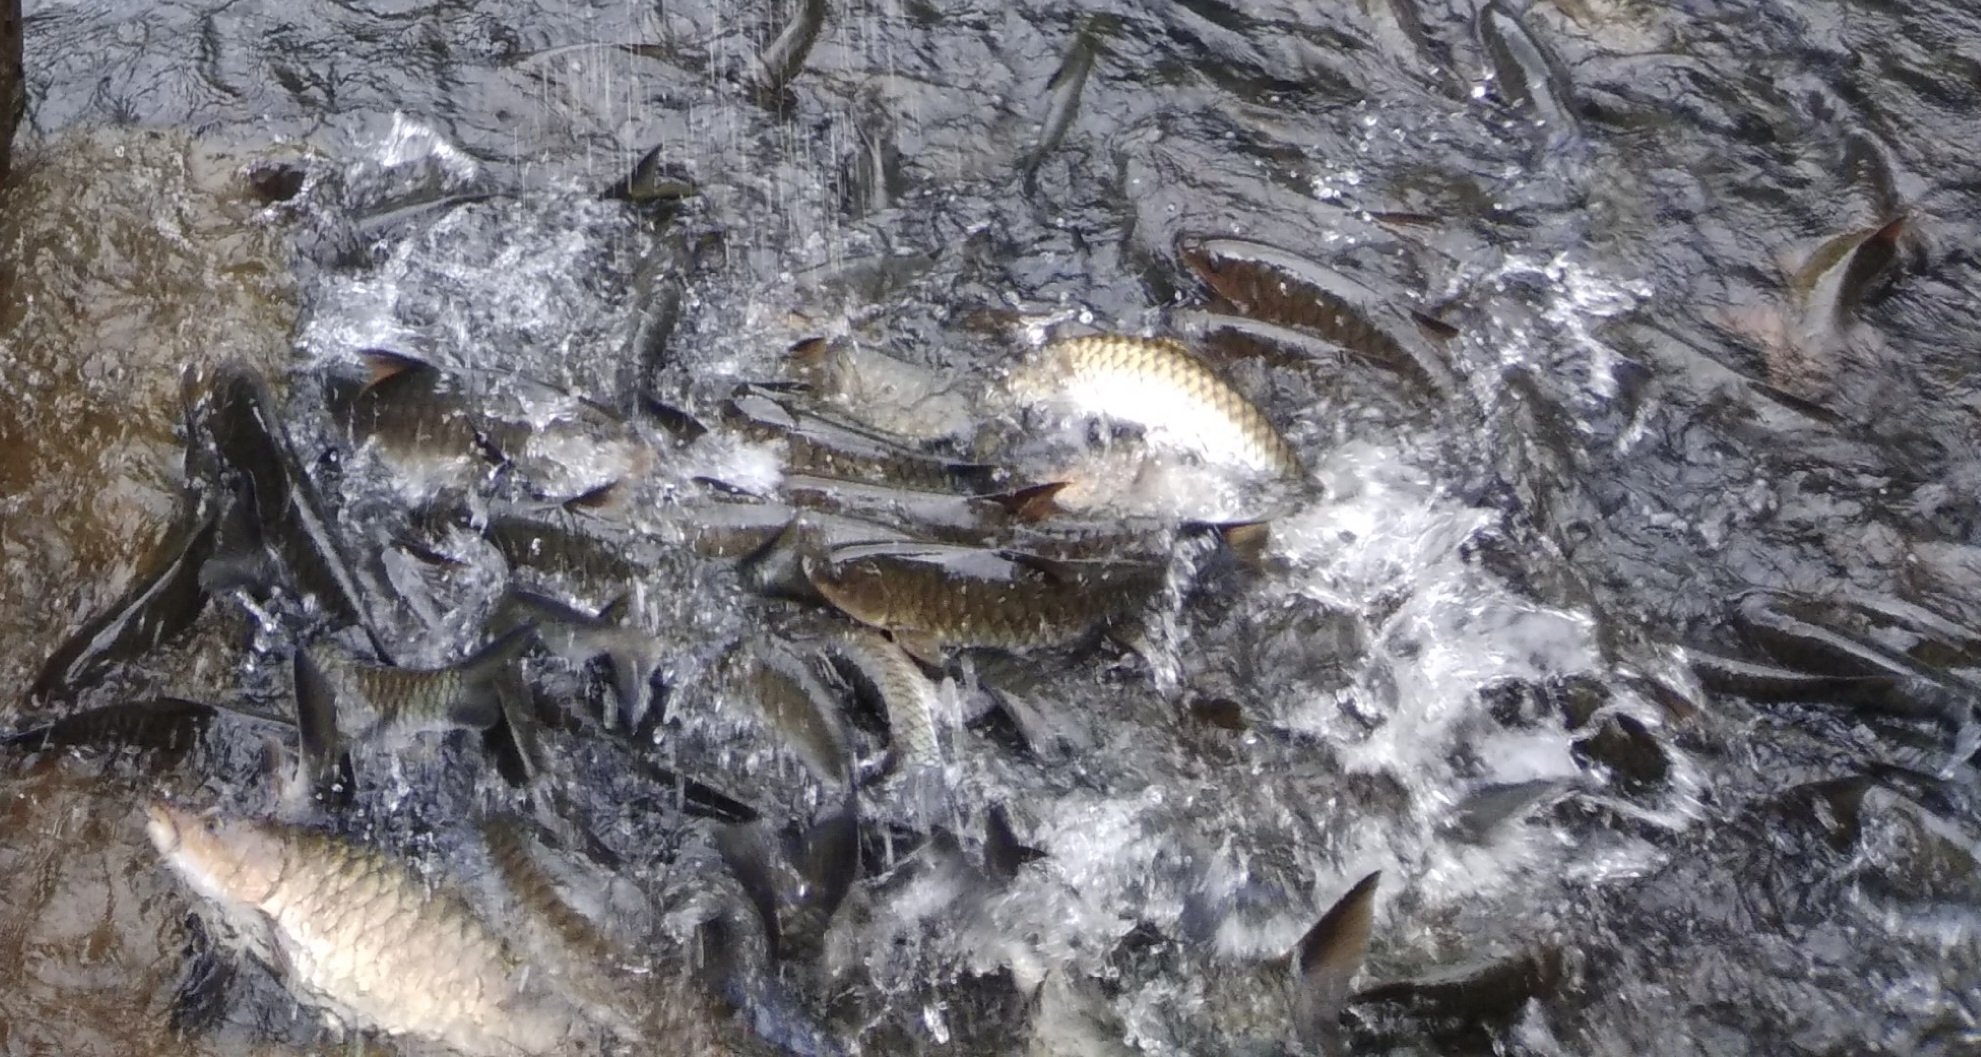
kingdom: Animalia
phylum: Chordata
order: Cypriniformes
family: Cyprinidae
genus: Tor
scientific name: Tor khudree
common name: Black mahseer
